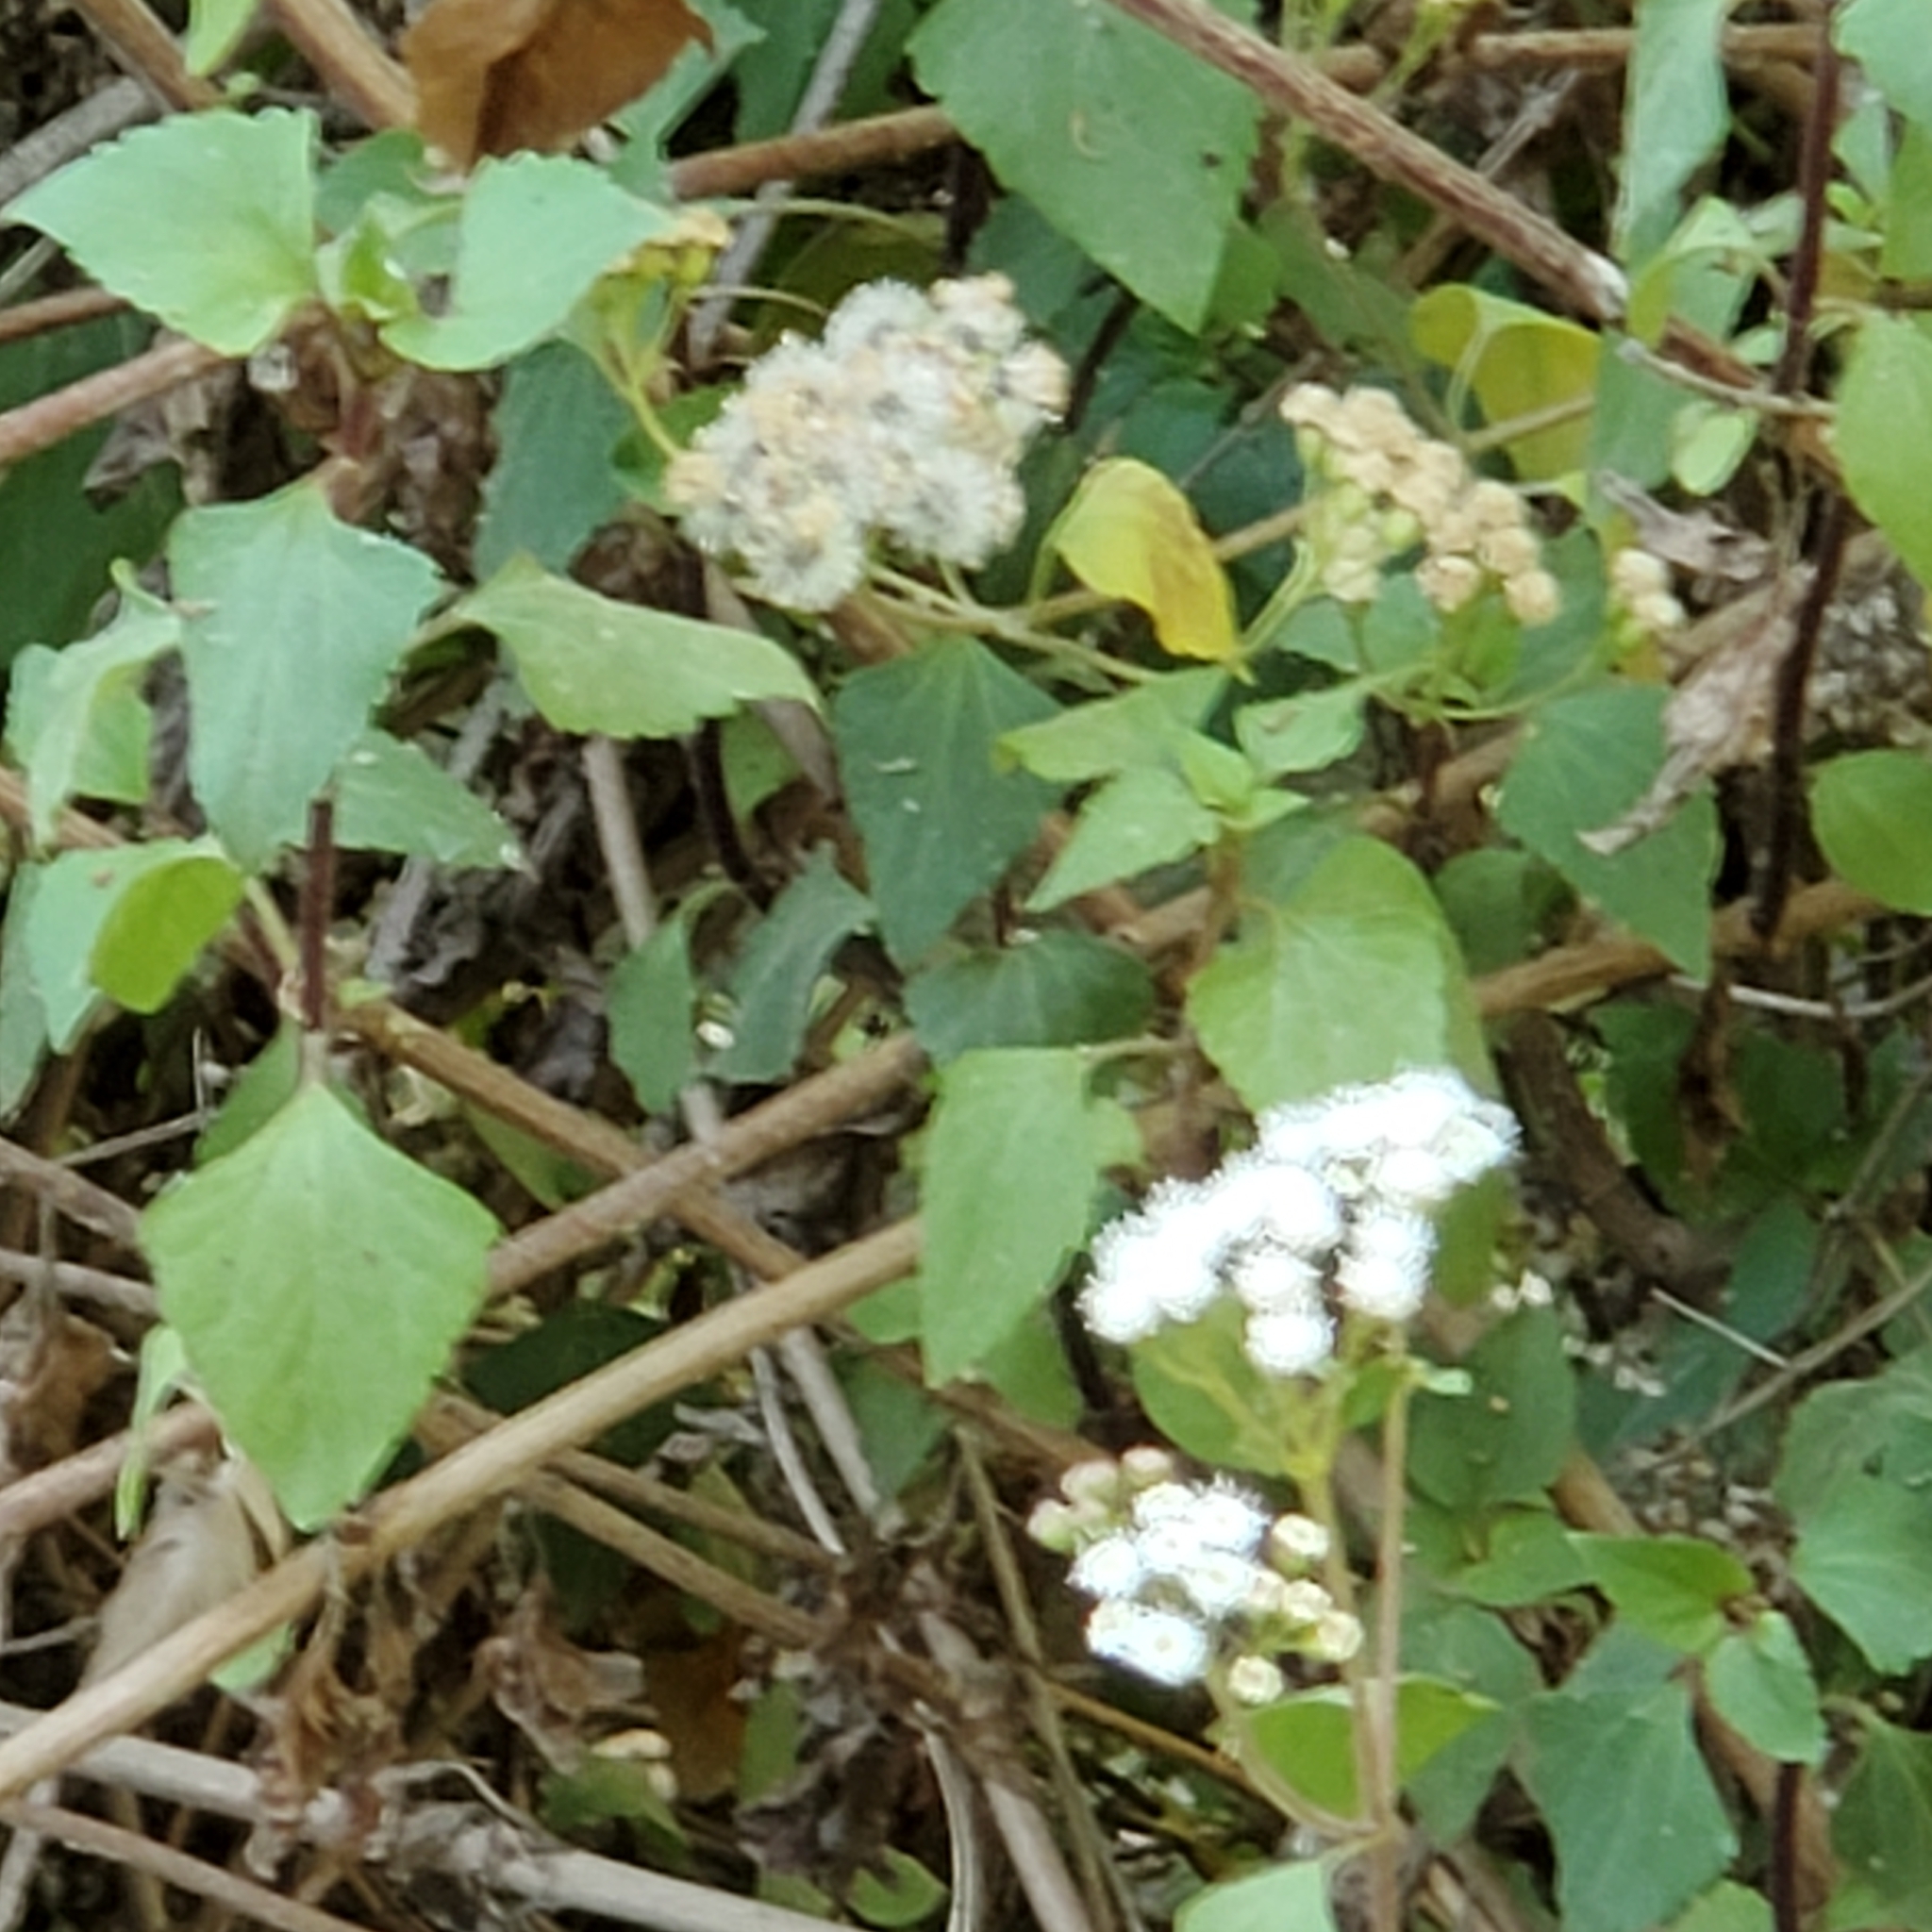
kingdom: Plantae
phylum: Tracheophyta
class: Magnoliopsida
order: Asterales
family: Asteraceae
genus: Ageratina
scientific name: Ageratina adenophora
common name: Sticky snakeroot
